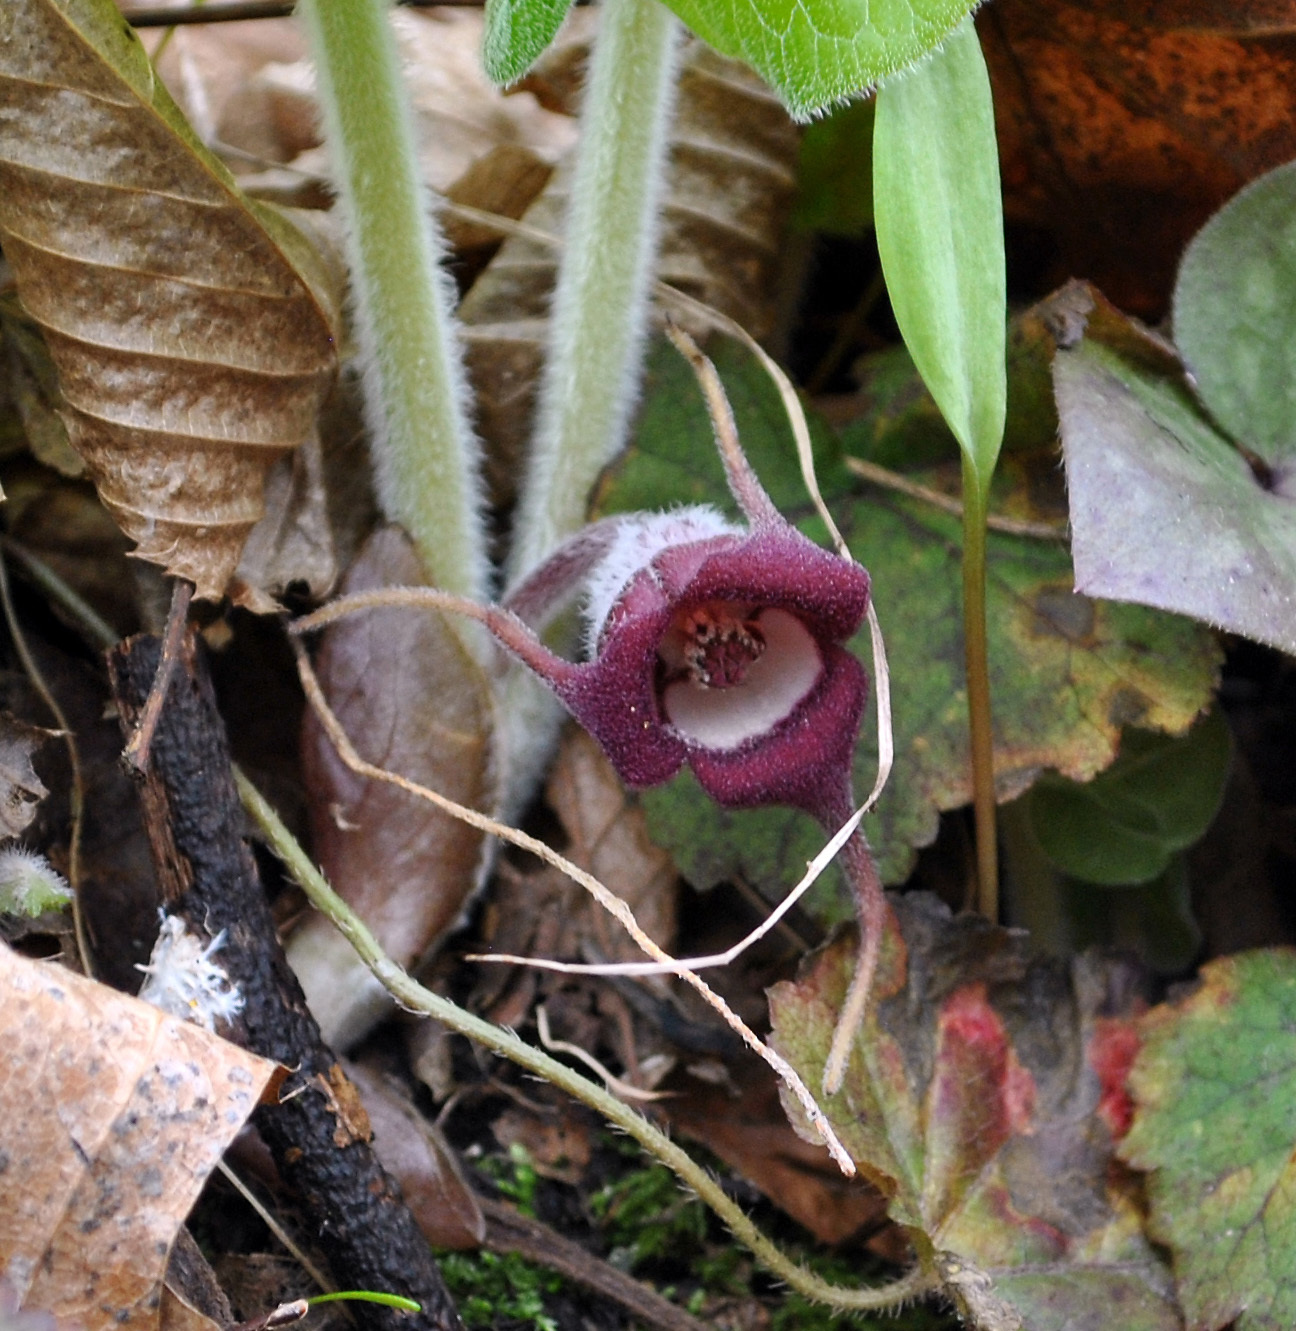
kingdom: Plantae
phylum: Tracheophyta
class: Magnoliopsida
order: Piperales
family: Aristolochiaceae
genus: Asarum
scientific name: Asarum canadense
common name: Wild ginger
